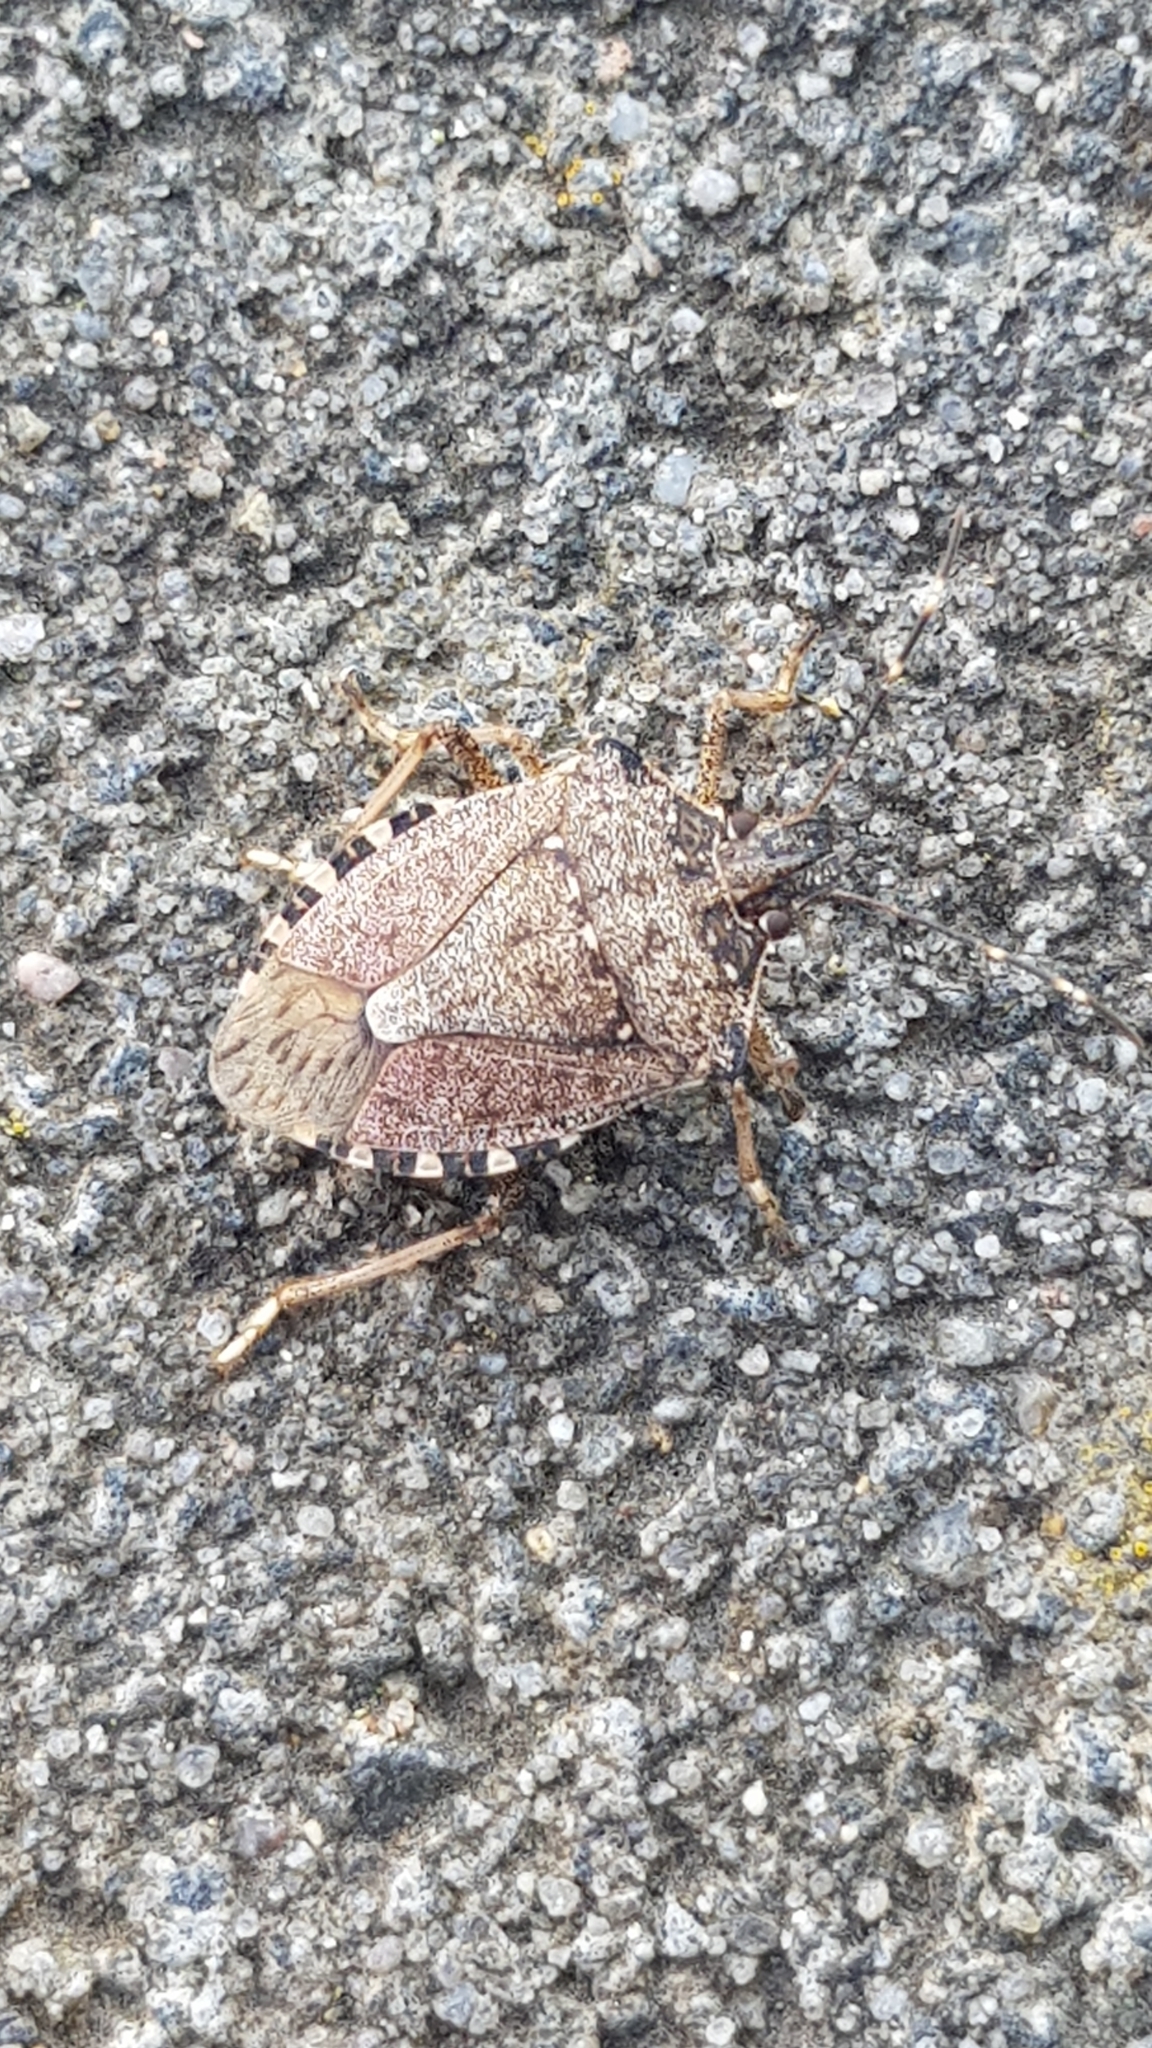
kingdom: Animalia
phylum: Arthropoda
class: Insecta
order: Hemiptera
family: Pentatomidae
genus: Halyomorpha
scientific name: Halyomorpha halys
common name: Brown marmorated stink bug
